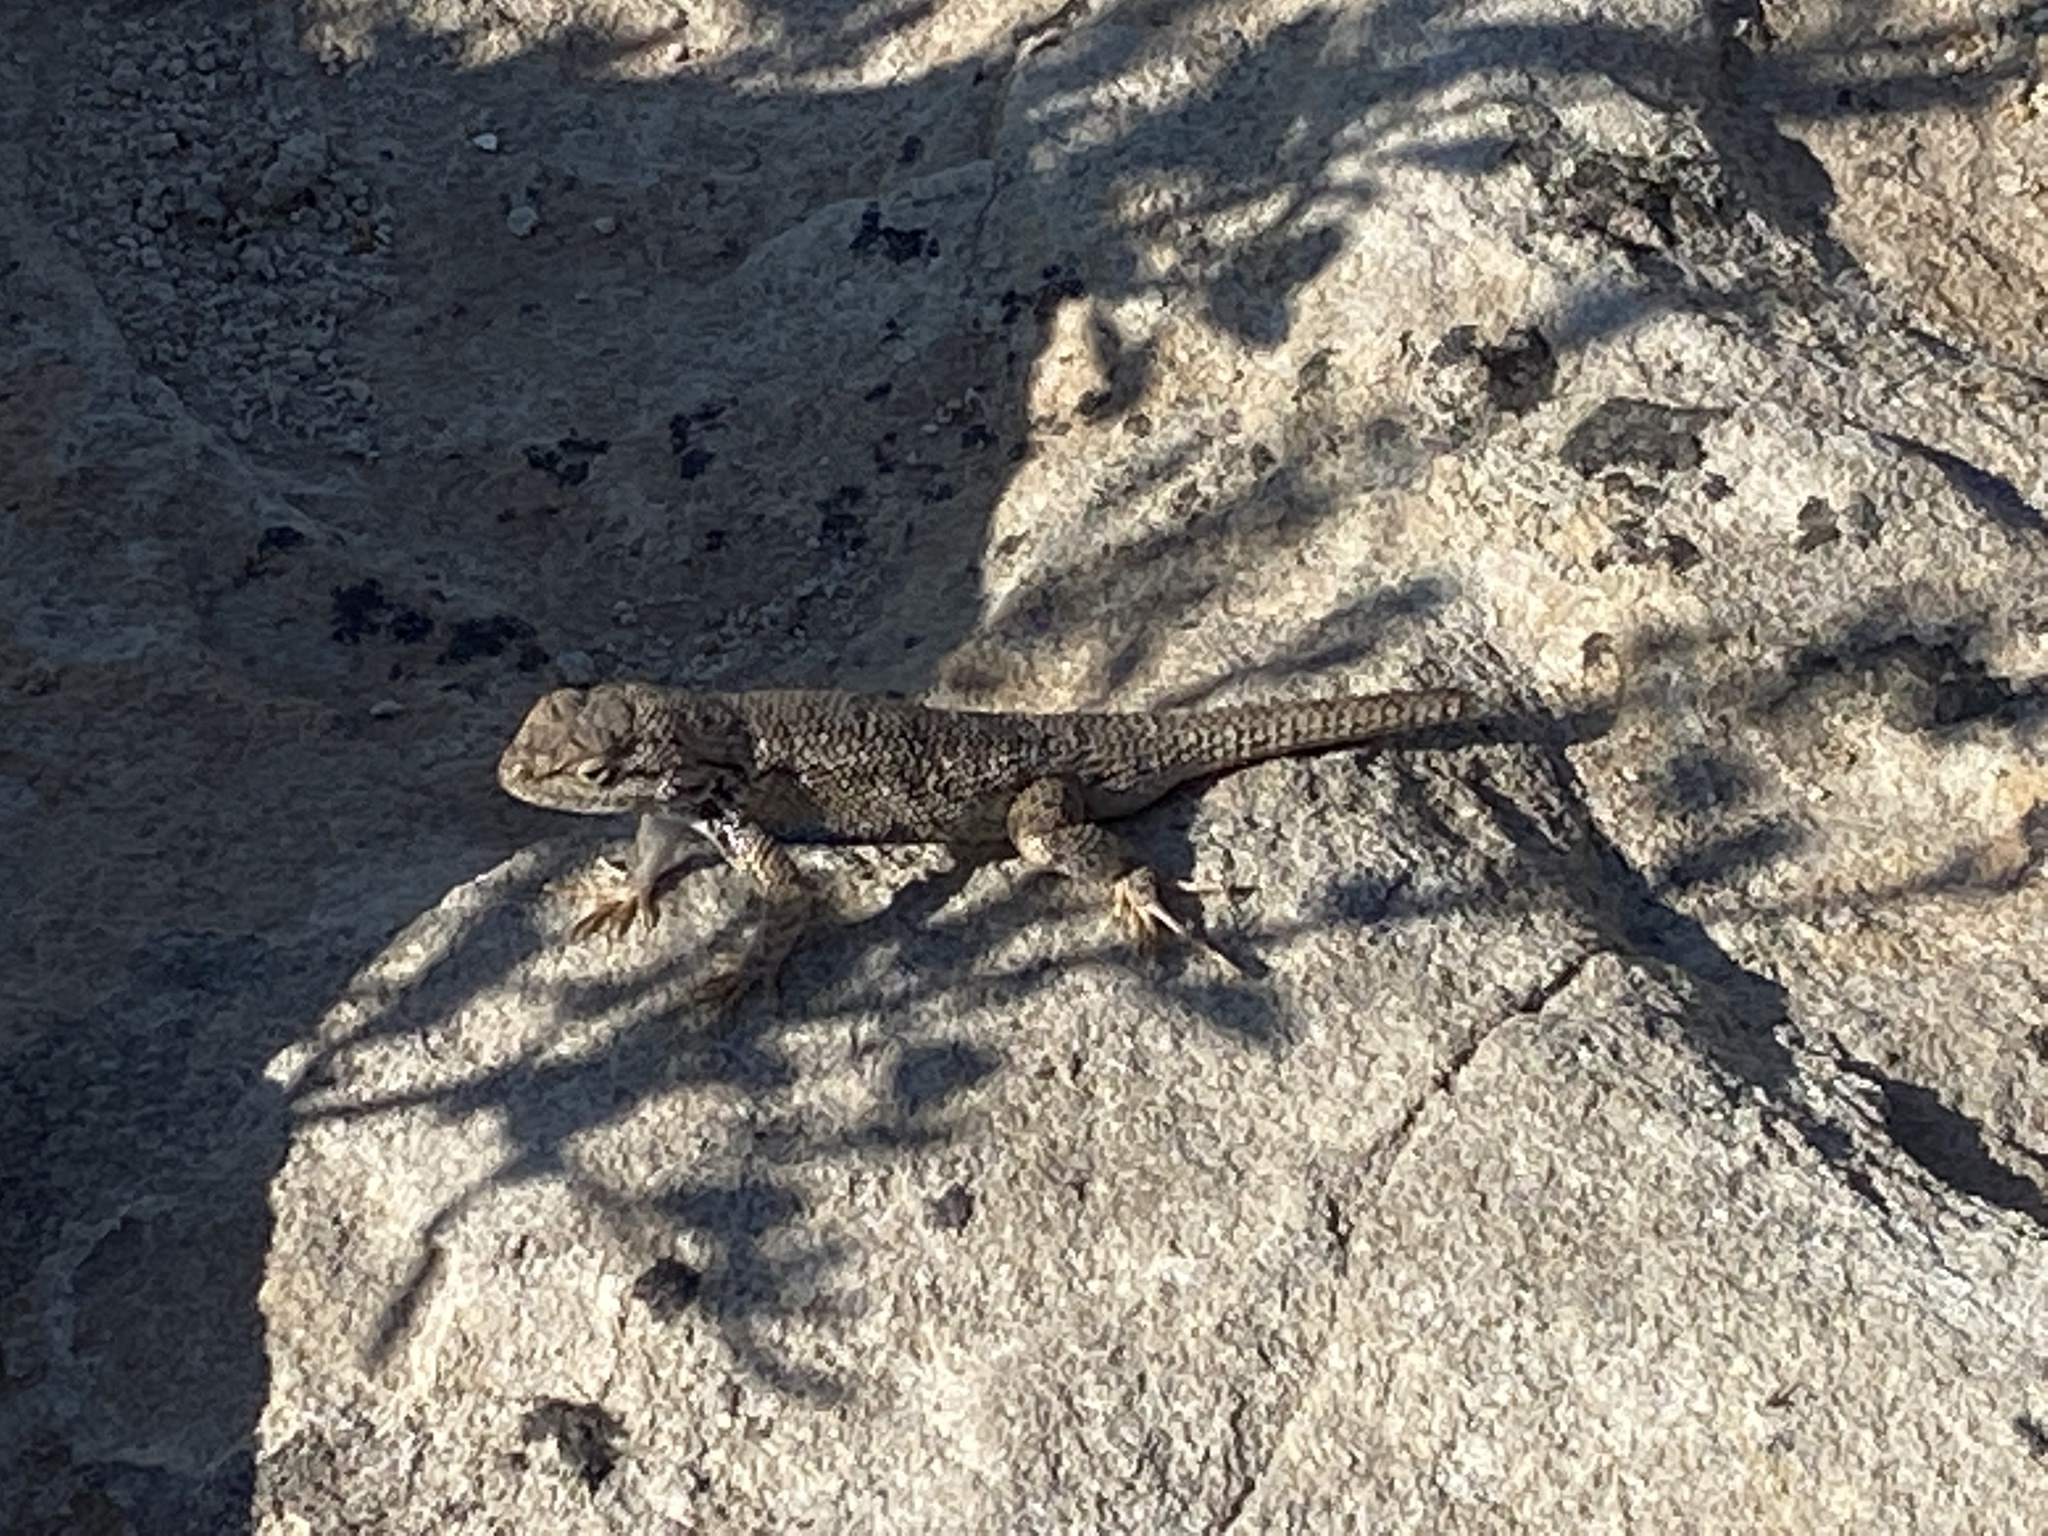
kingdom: Animalia
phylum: Chordata
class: Squamata
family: Phrynosomatidae
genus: Sceloporus
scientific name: Sceloporus tristichus
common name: Plateau fence lizard
